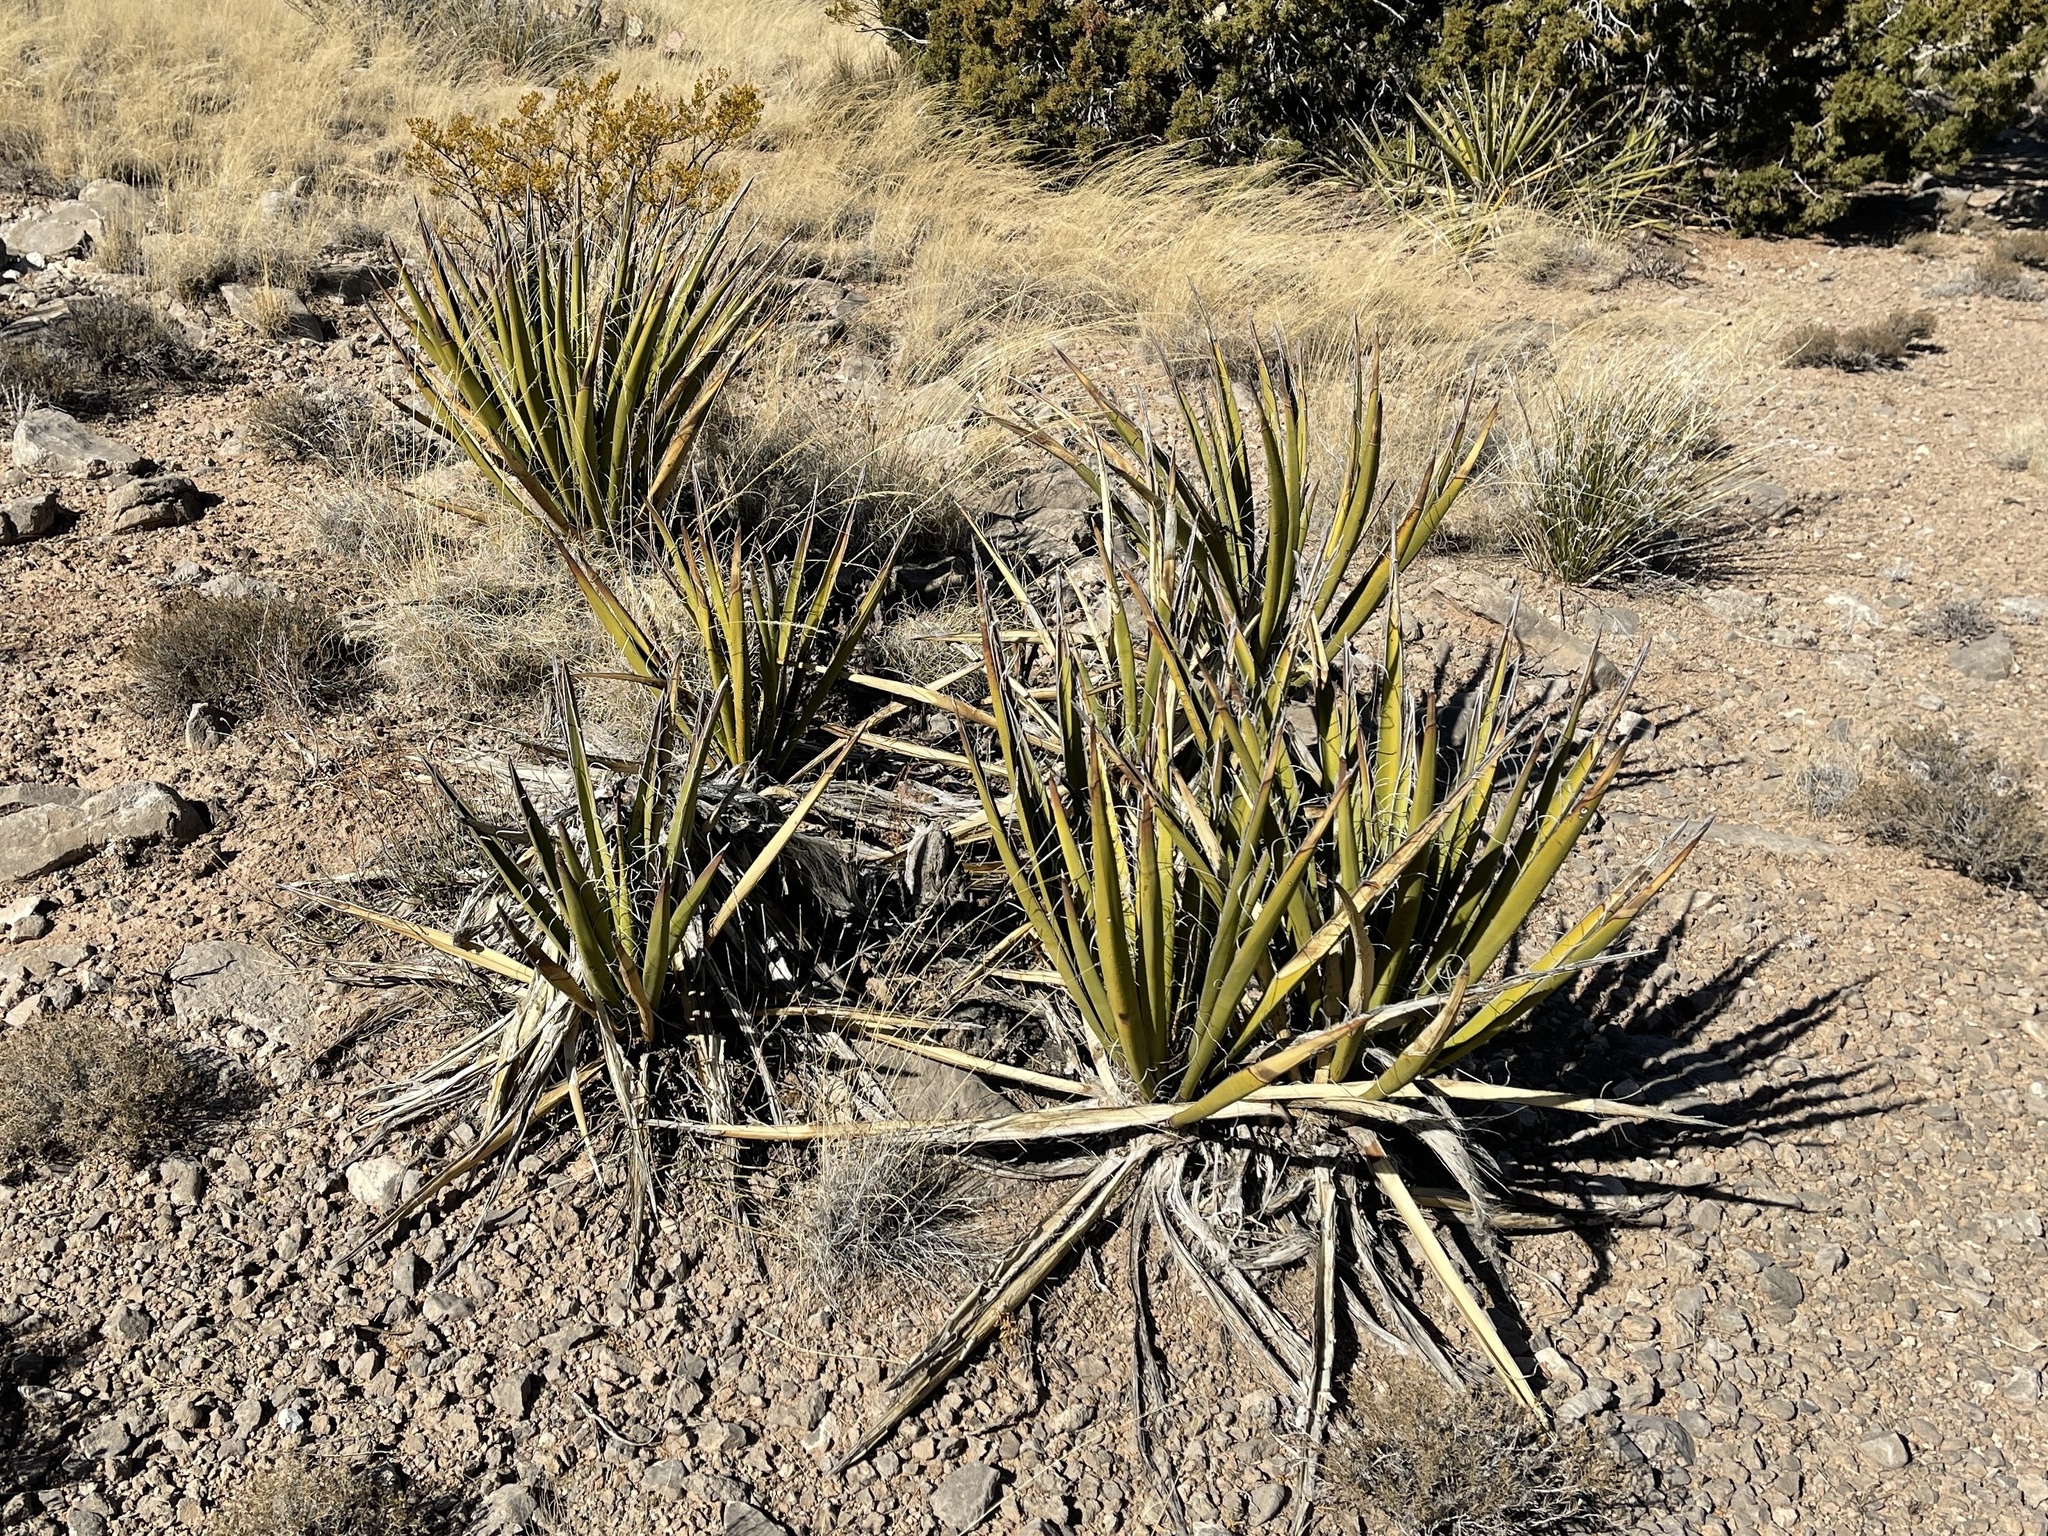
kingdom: Plantae
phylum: Tracheophyta
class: Liliopsida
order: Asparagales
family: Asparagaceae
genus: Yucca
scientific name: Yucca baccata
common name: Banana yucca
